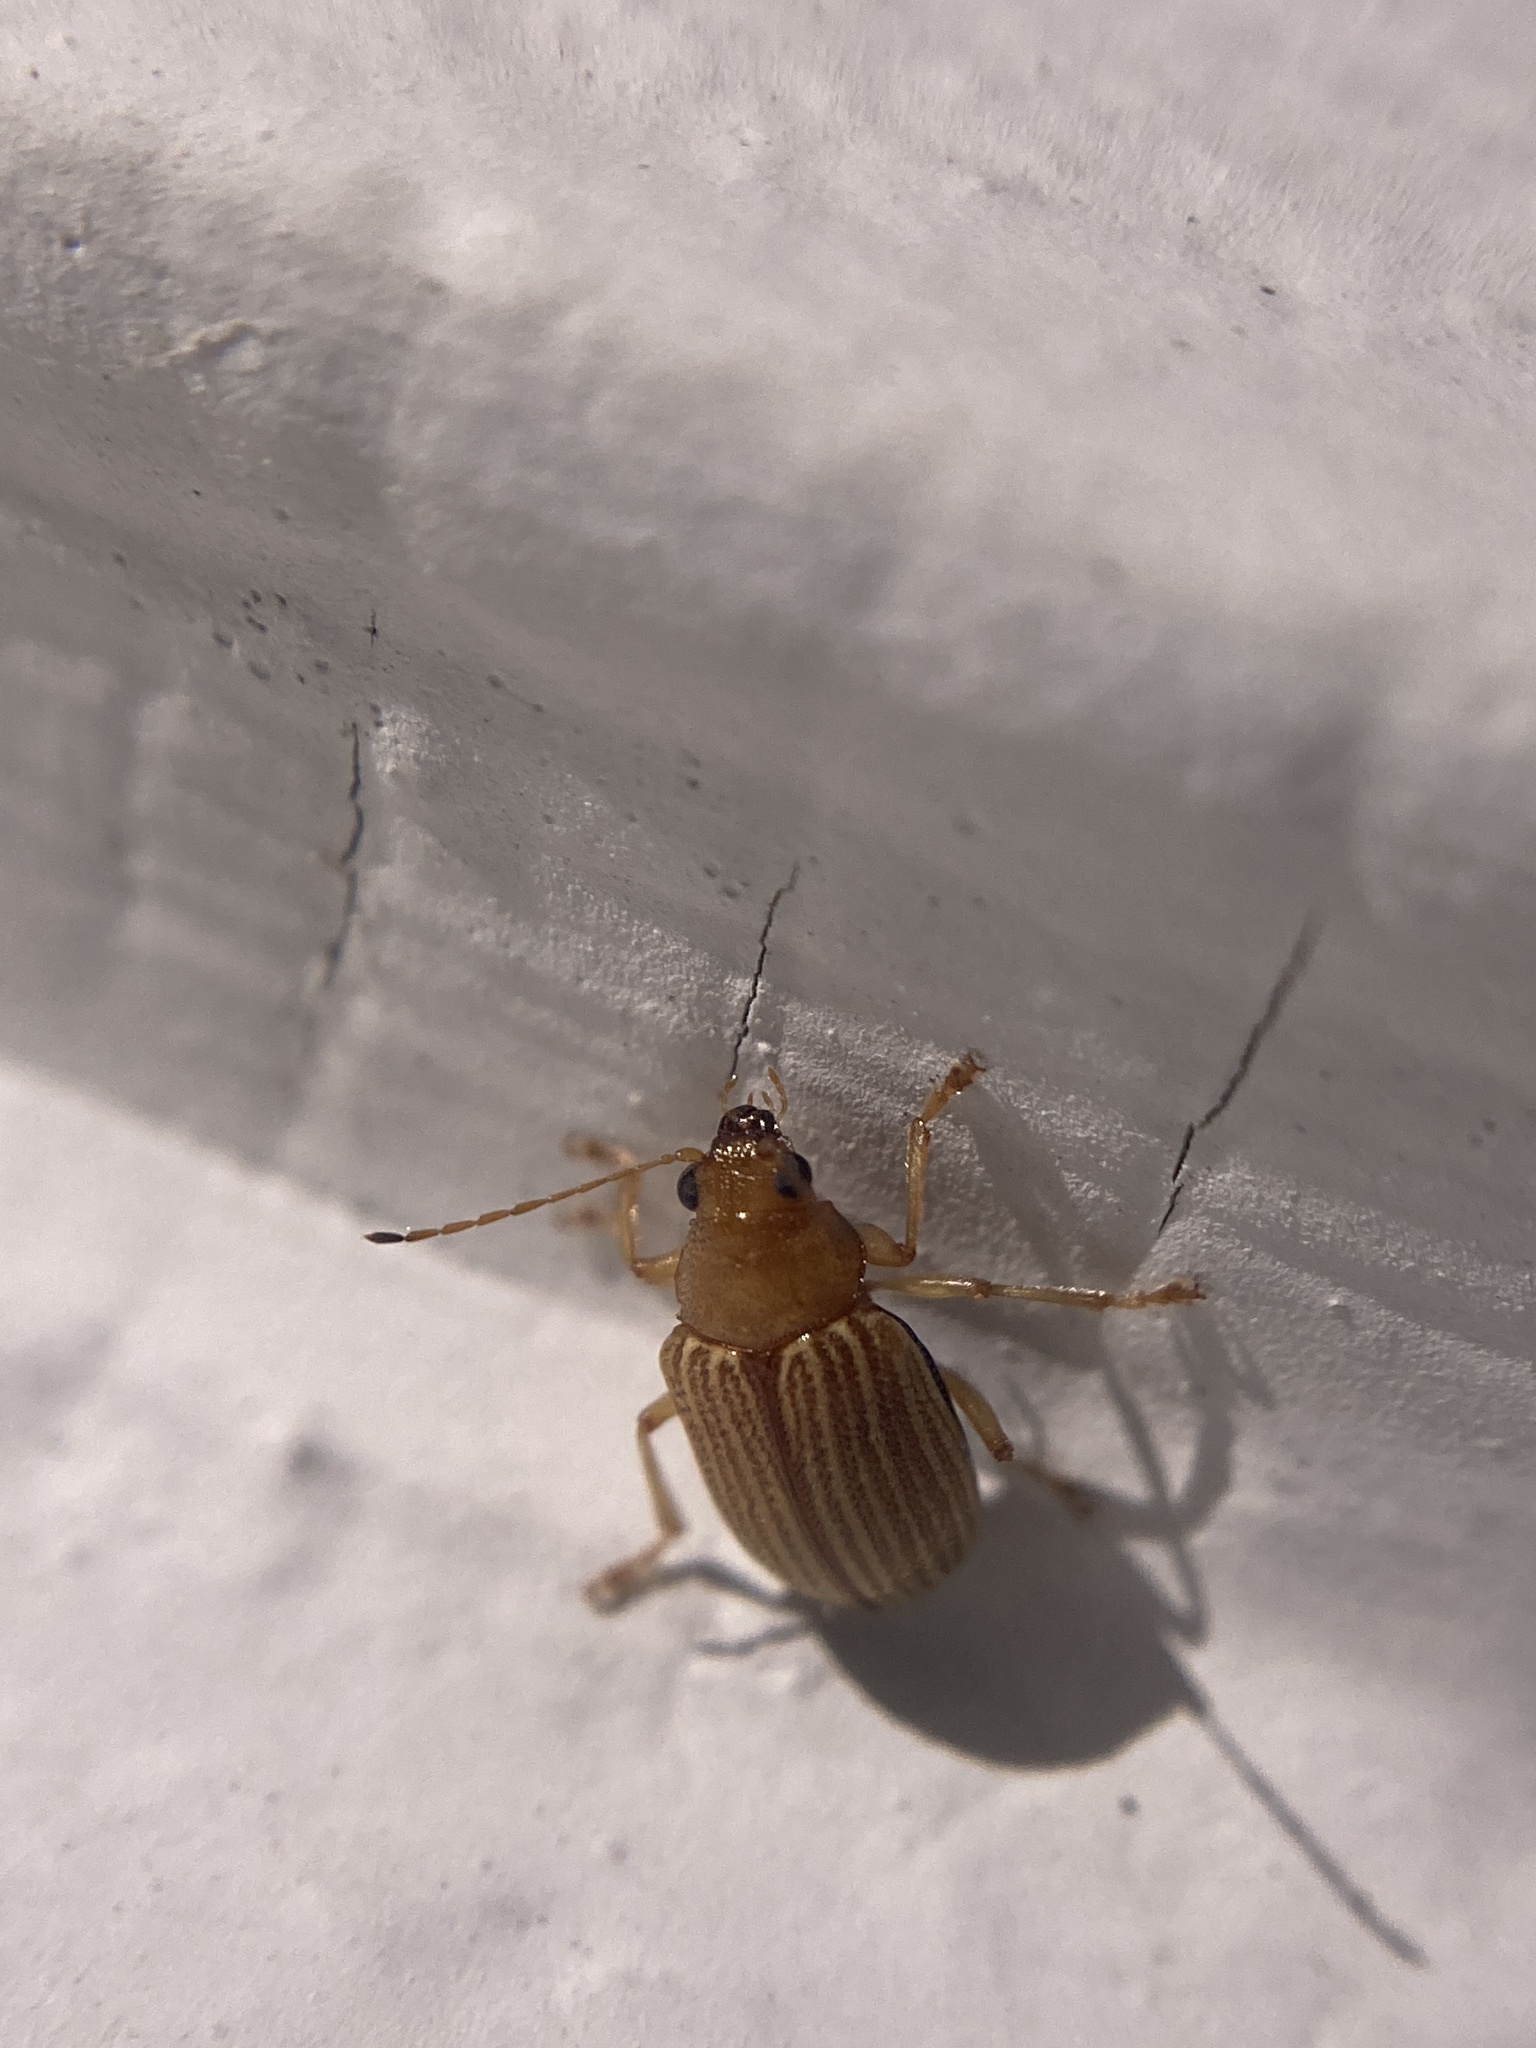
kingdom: Animalia
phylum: Arthropoda
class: Insecta
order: Coleoptera
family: Chrysomelidae
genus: Colaspis
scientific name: Colaspis brunnea
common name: Grape colaspis
